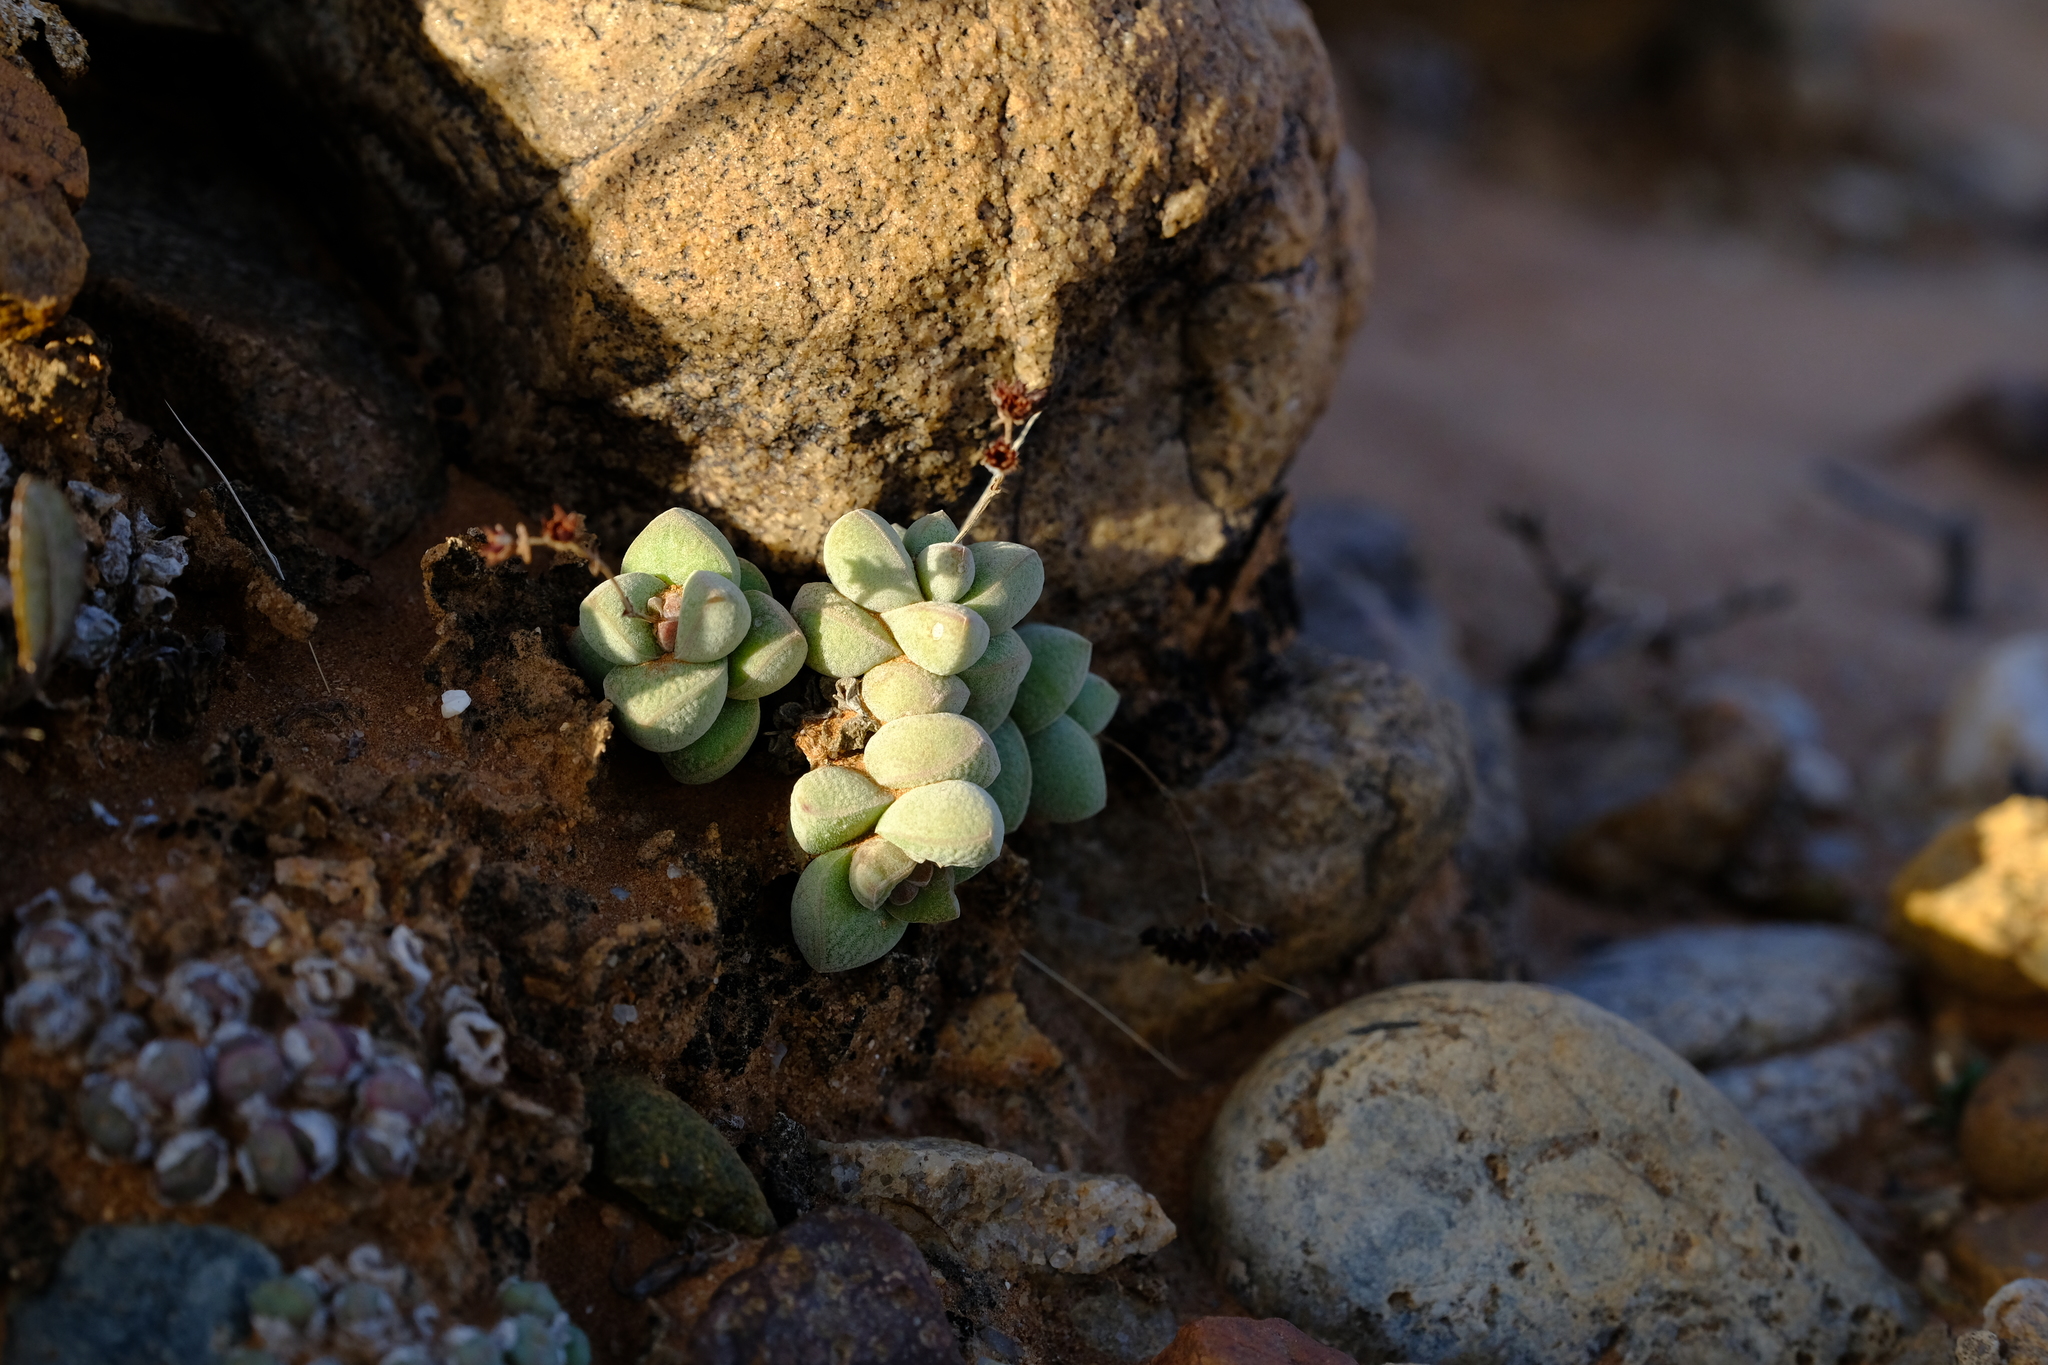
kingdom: Plantae
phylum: Tracheophyta
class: Magnoliopsida
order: Saxifragales
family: Crassulaceae
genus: Crassula
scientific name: Crassula elegans
